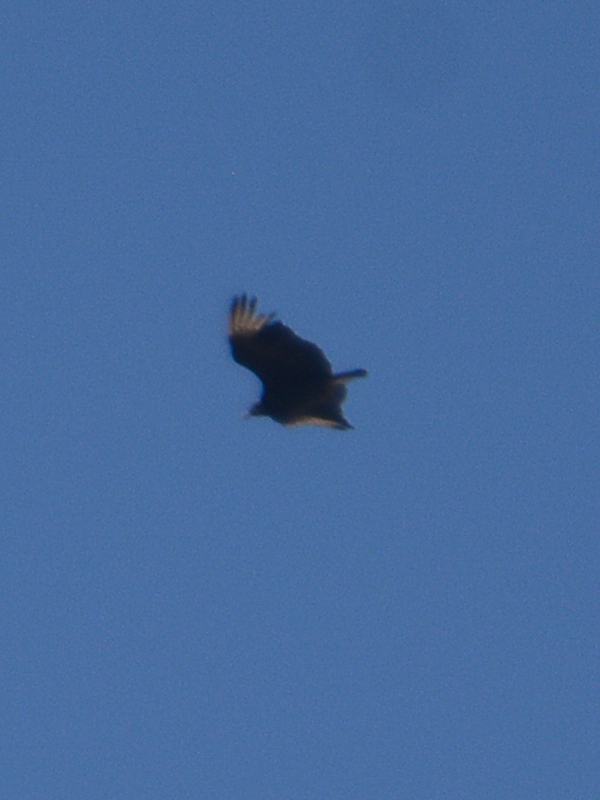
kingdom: Animalia
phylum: Chordata
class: Aves
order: Accipitriformes
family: Cathartidae
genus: Coragyps
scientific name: Coragyps atratus
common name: Black vulture
